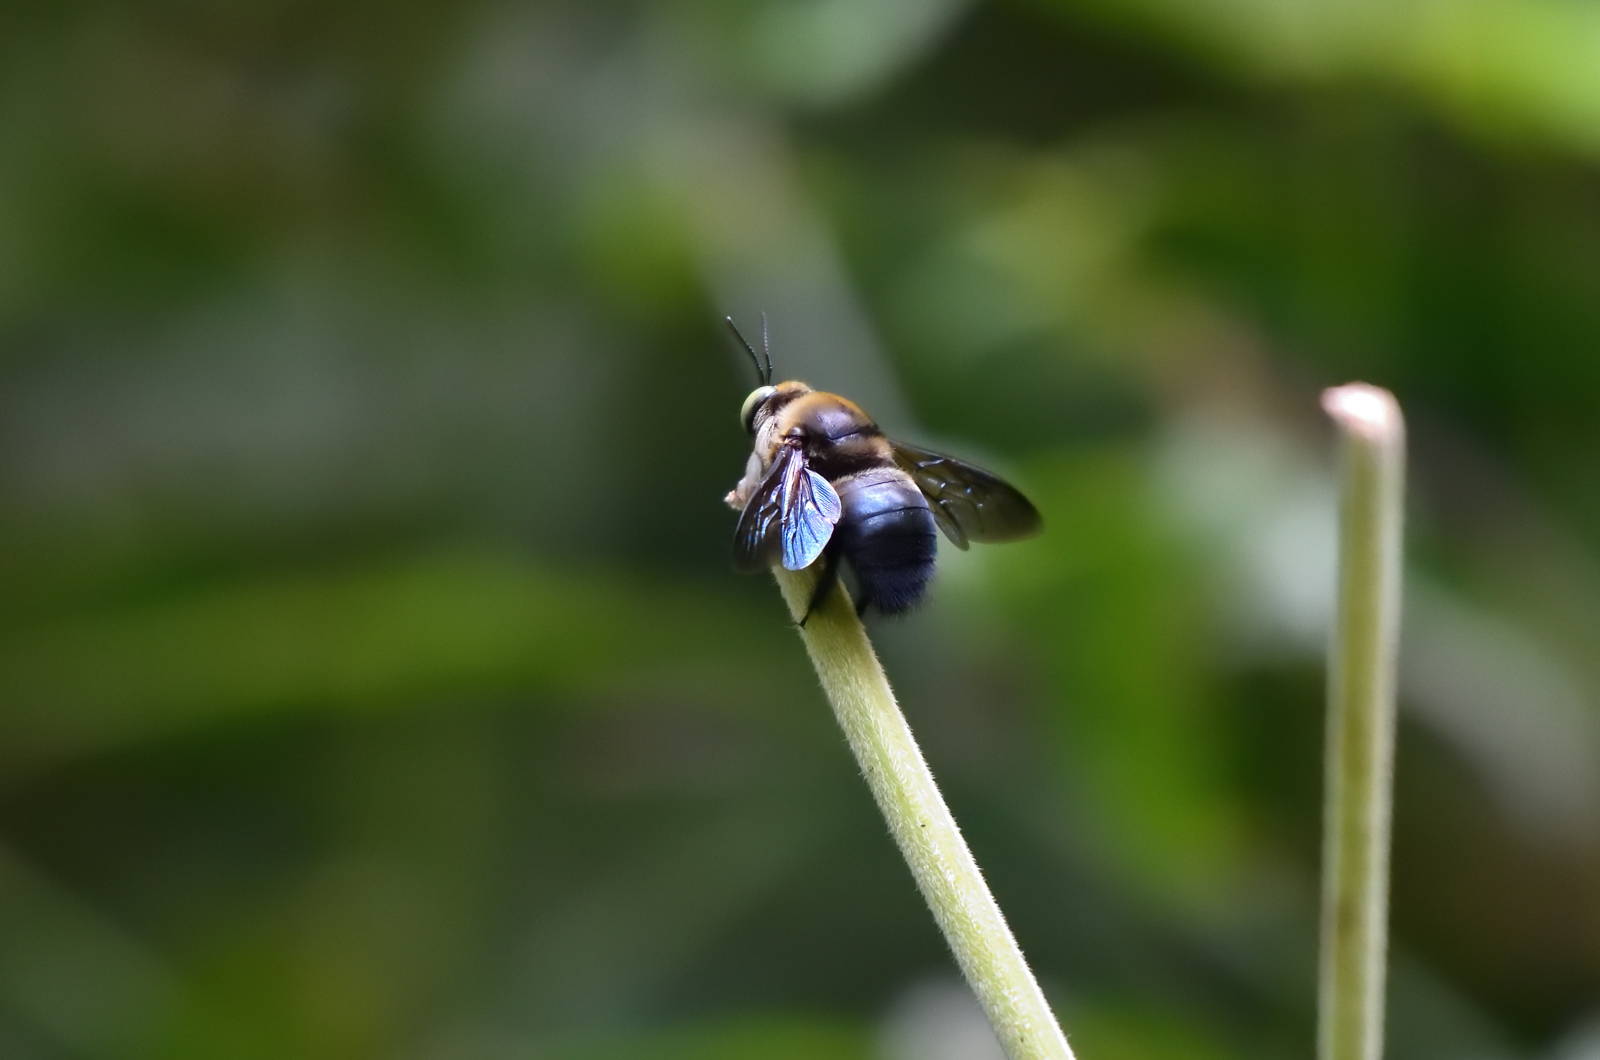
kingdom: Animalia
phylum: Arthropoda
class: Insecta
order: Hymenoptera
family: Apidae
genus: Xylocopa
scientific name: Xylocopa bhowara
